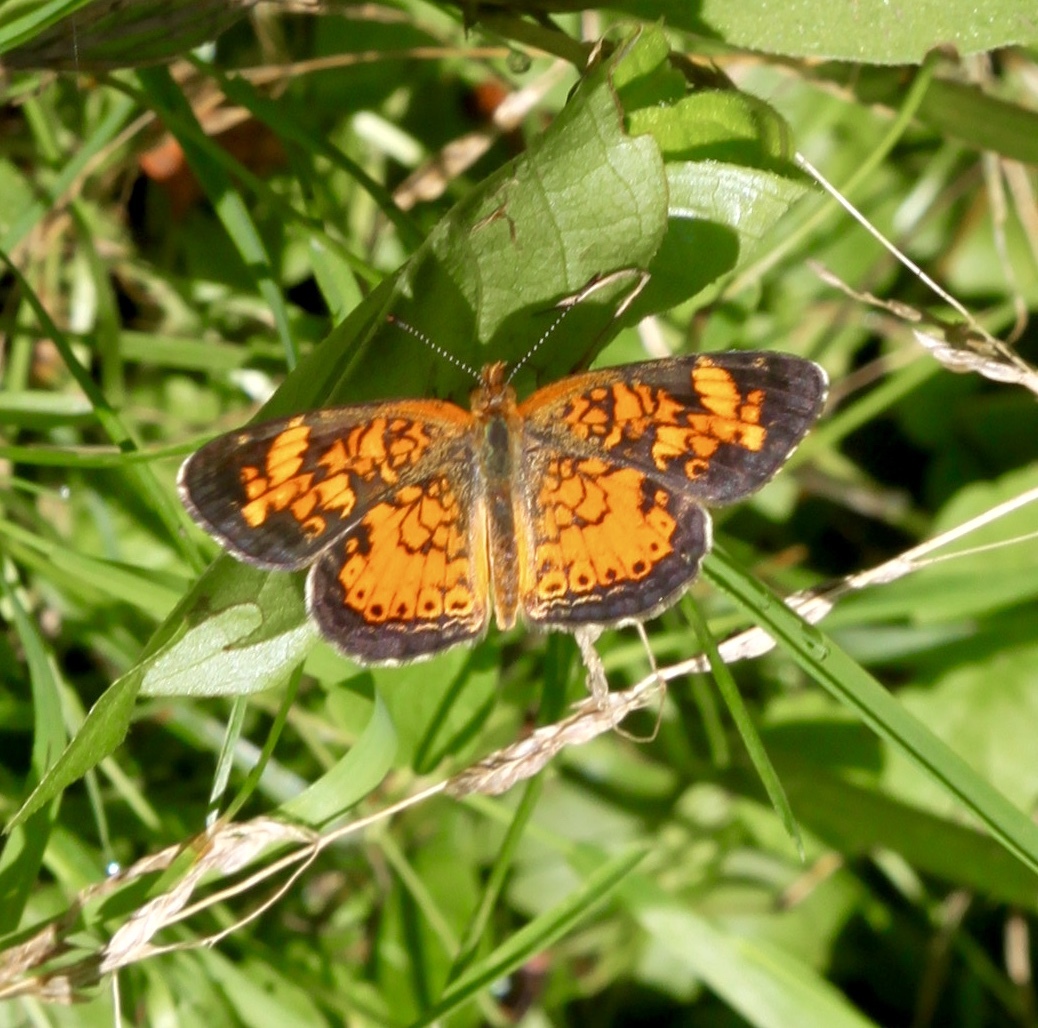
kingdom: Animalia
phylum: Arthropoda
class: Insecta
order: Lepidoptera
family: Nymphalidae
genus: Phyciodes
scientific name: Phyciodes tharos
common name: Pearl crescent
